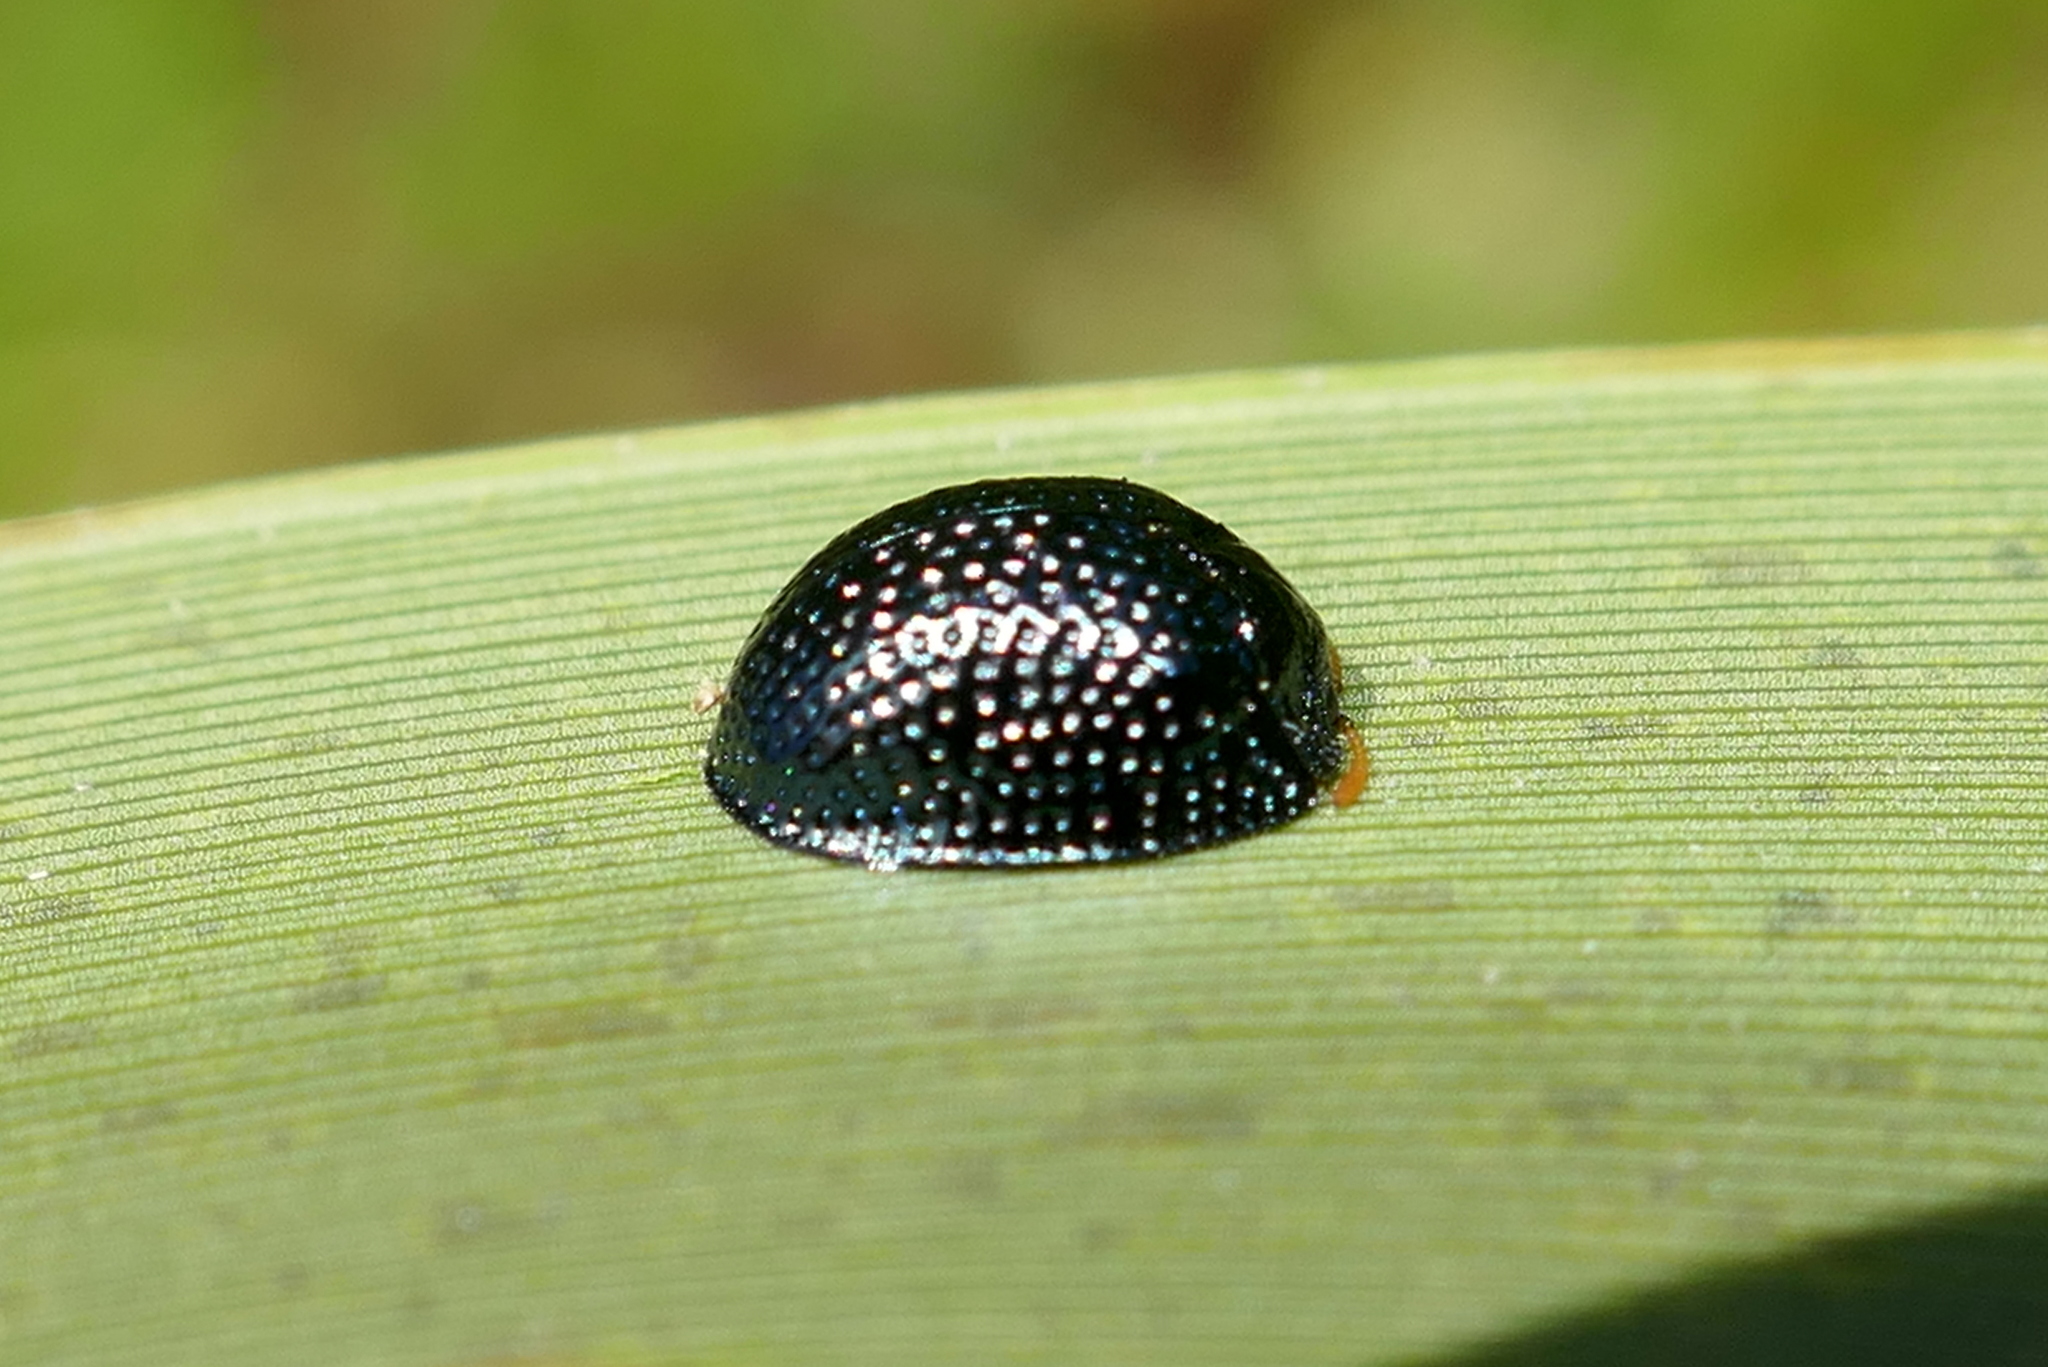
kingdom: Animalia
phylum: Arthropoda
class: Insecta
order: Coleoptera
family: Chrysomelidae
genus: Hemisphaerota
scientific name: Hemisphaerota cyanea
